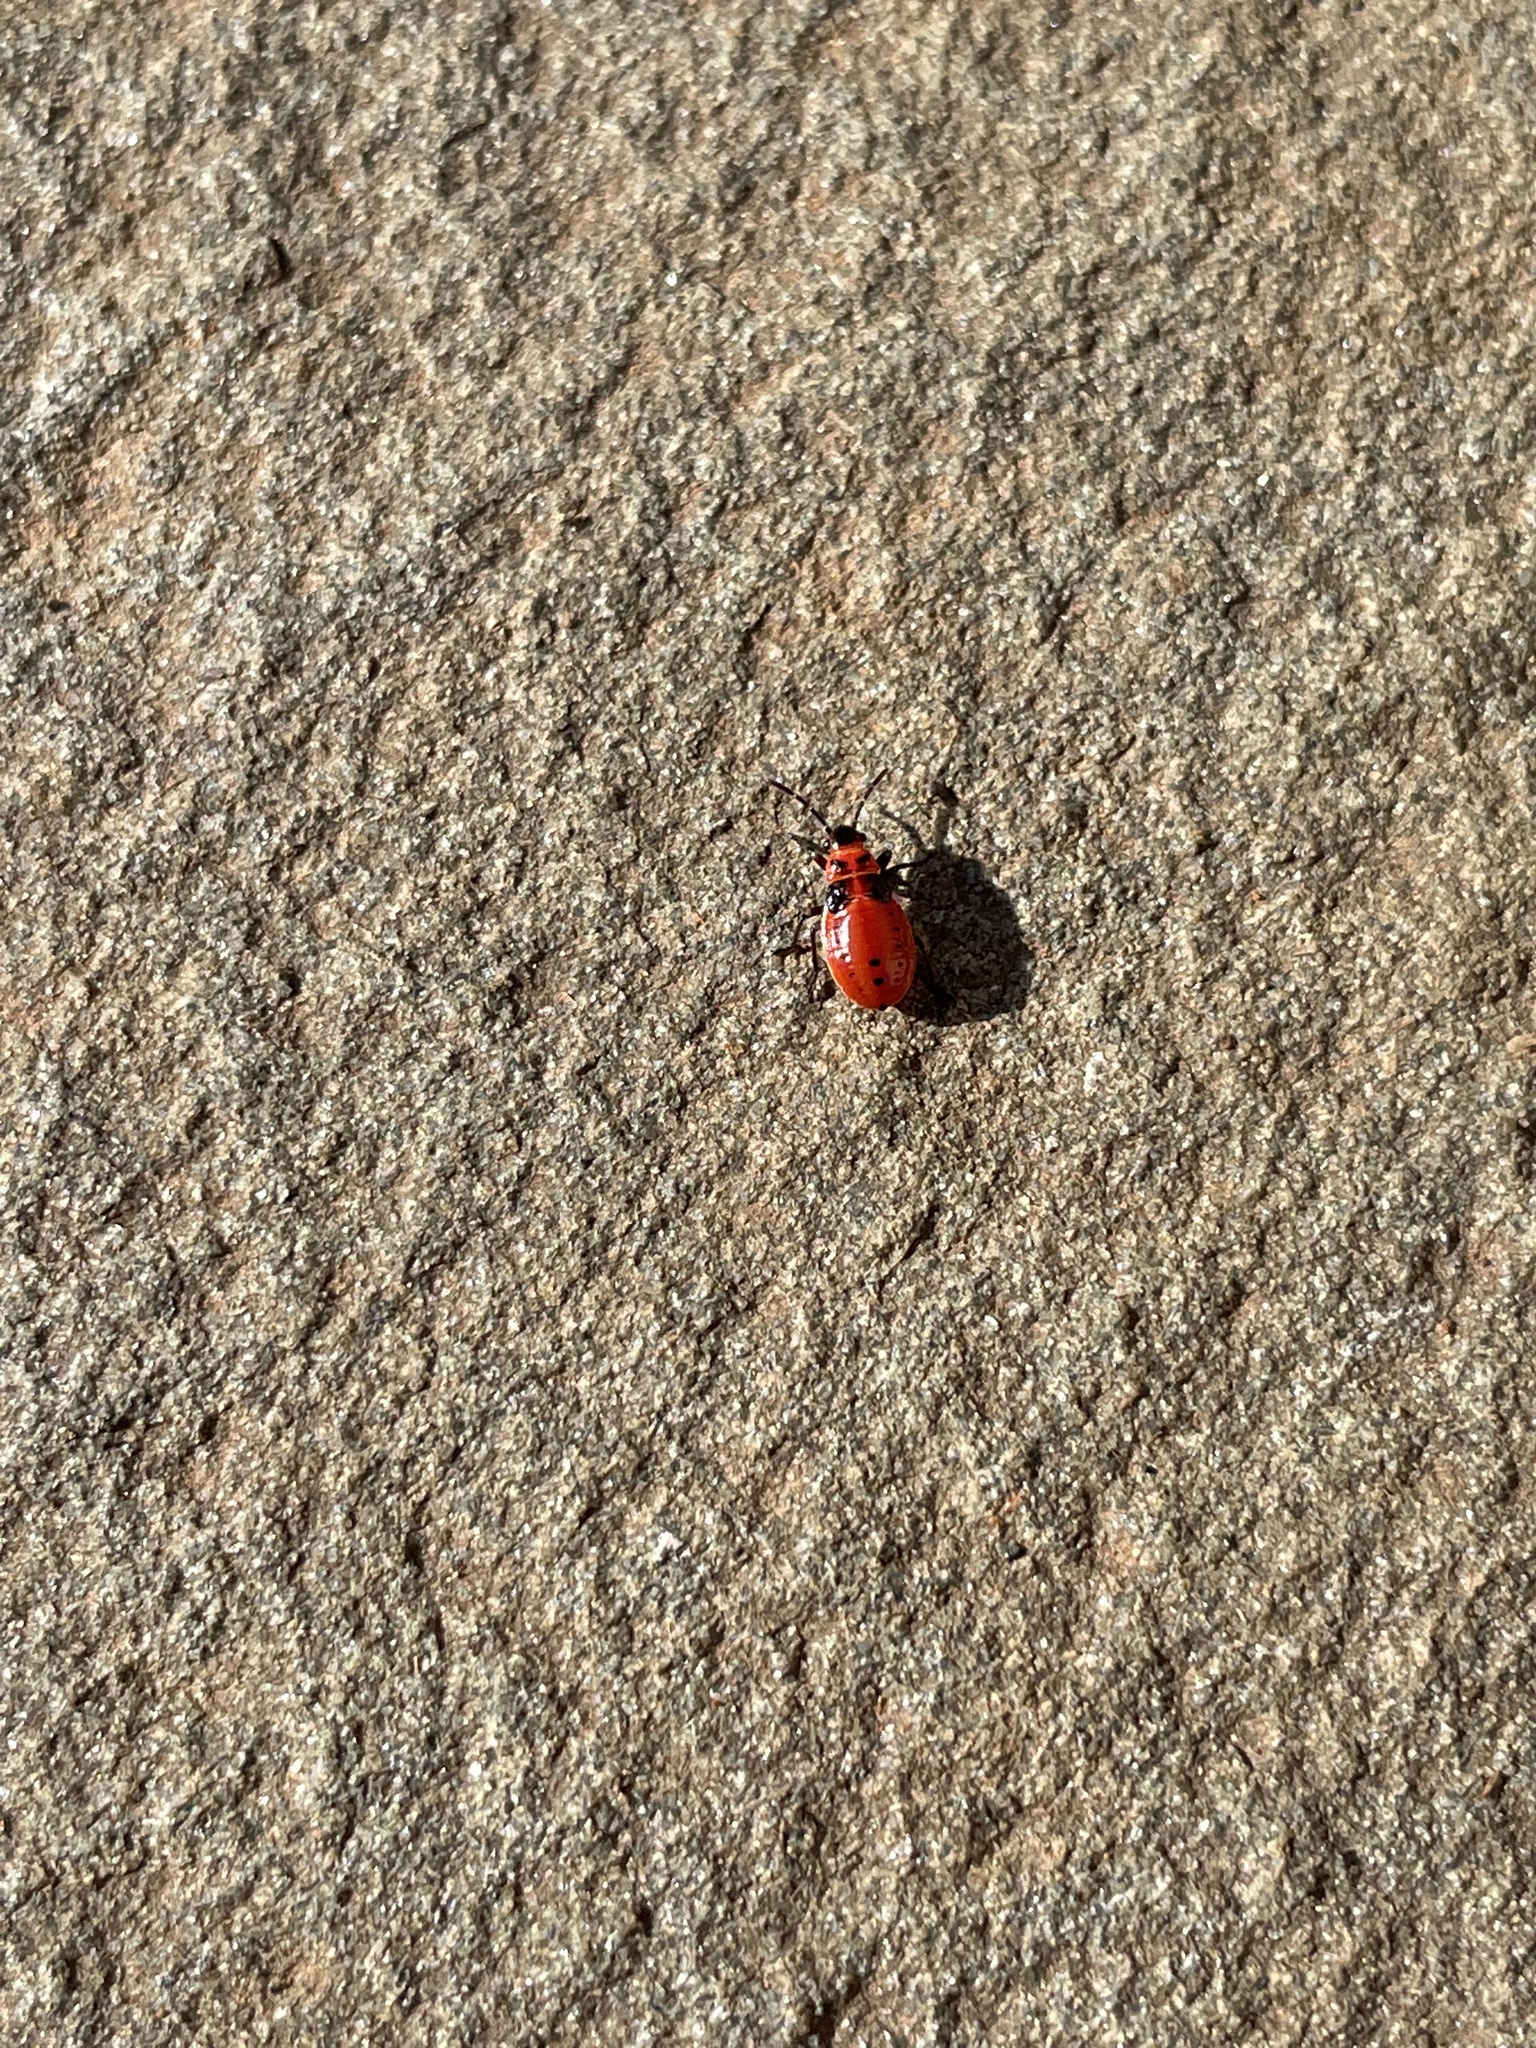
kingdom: Animalia
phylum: Arthropoda
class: Insecta
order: Hemiptera
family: Lygaeidae
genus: Lygaeus
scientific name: Lygaeus kalmii
